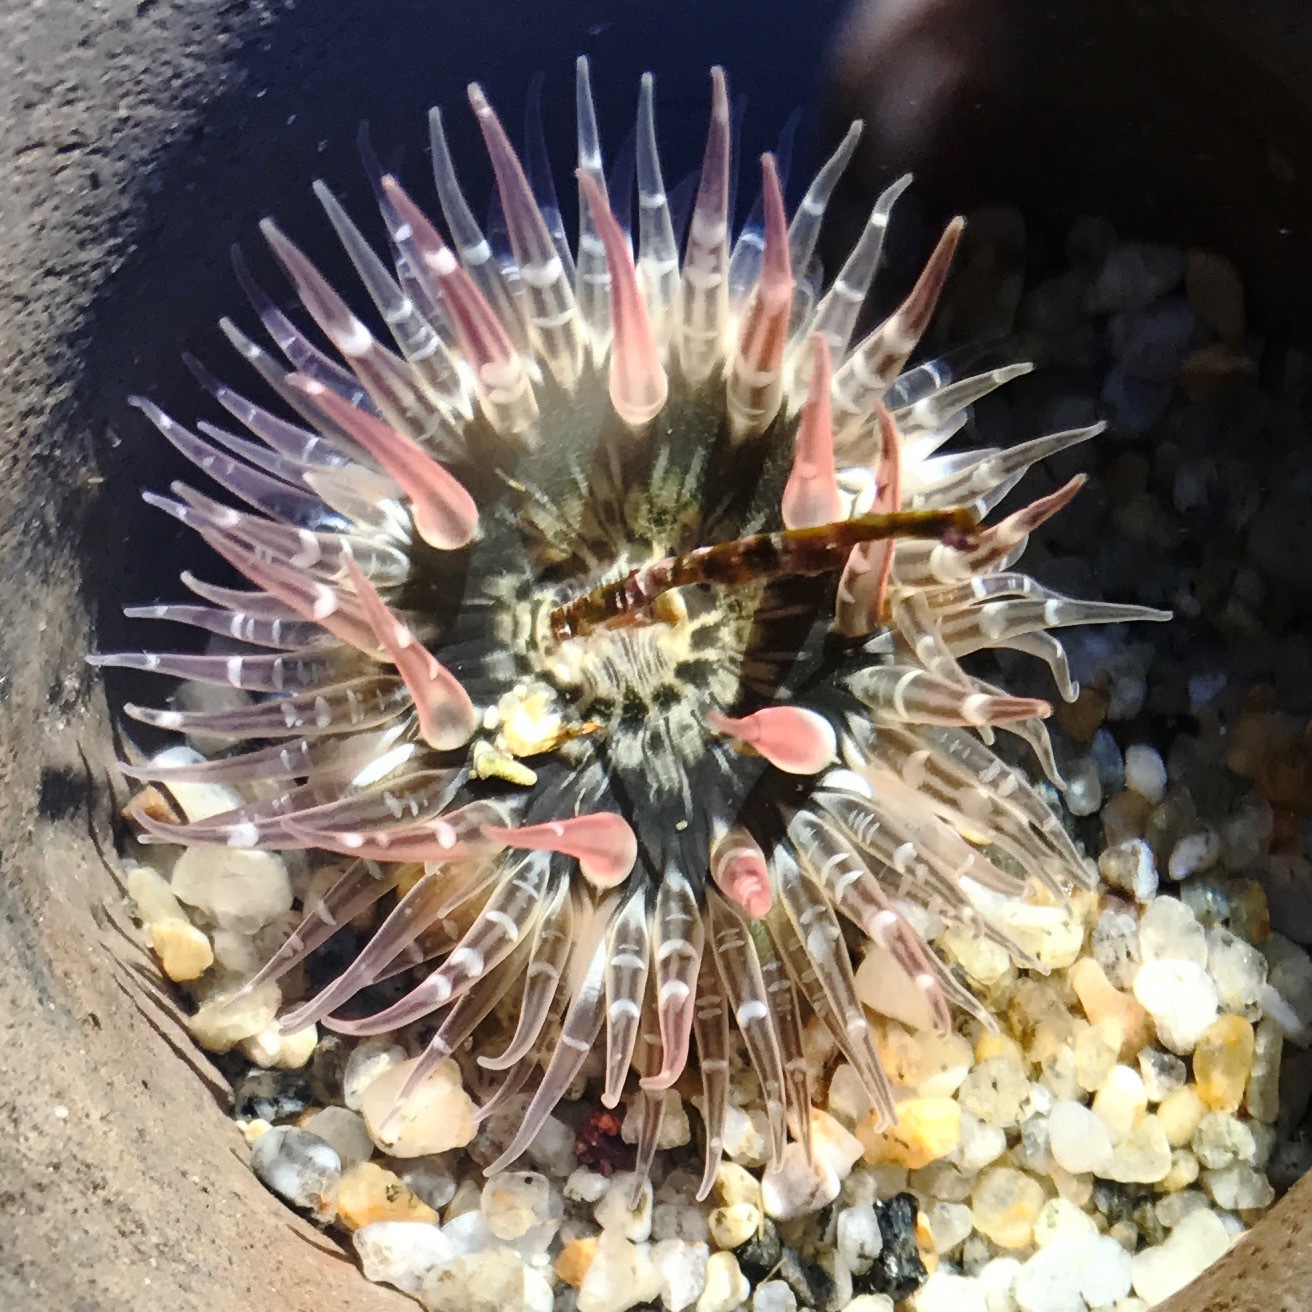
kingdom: Animalia
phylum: Cnidaria
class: Anthozoa
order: Actiniaria
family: Actiniidae
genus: Anthopleura
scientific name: Anthopleura artemisia
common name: Buried sea anemone
